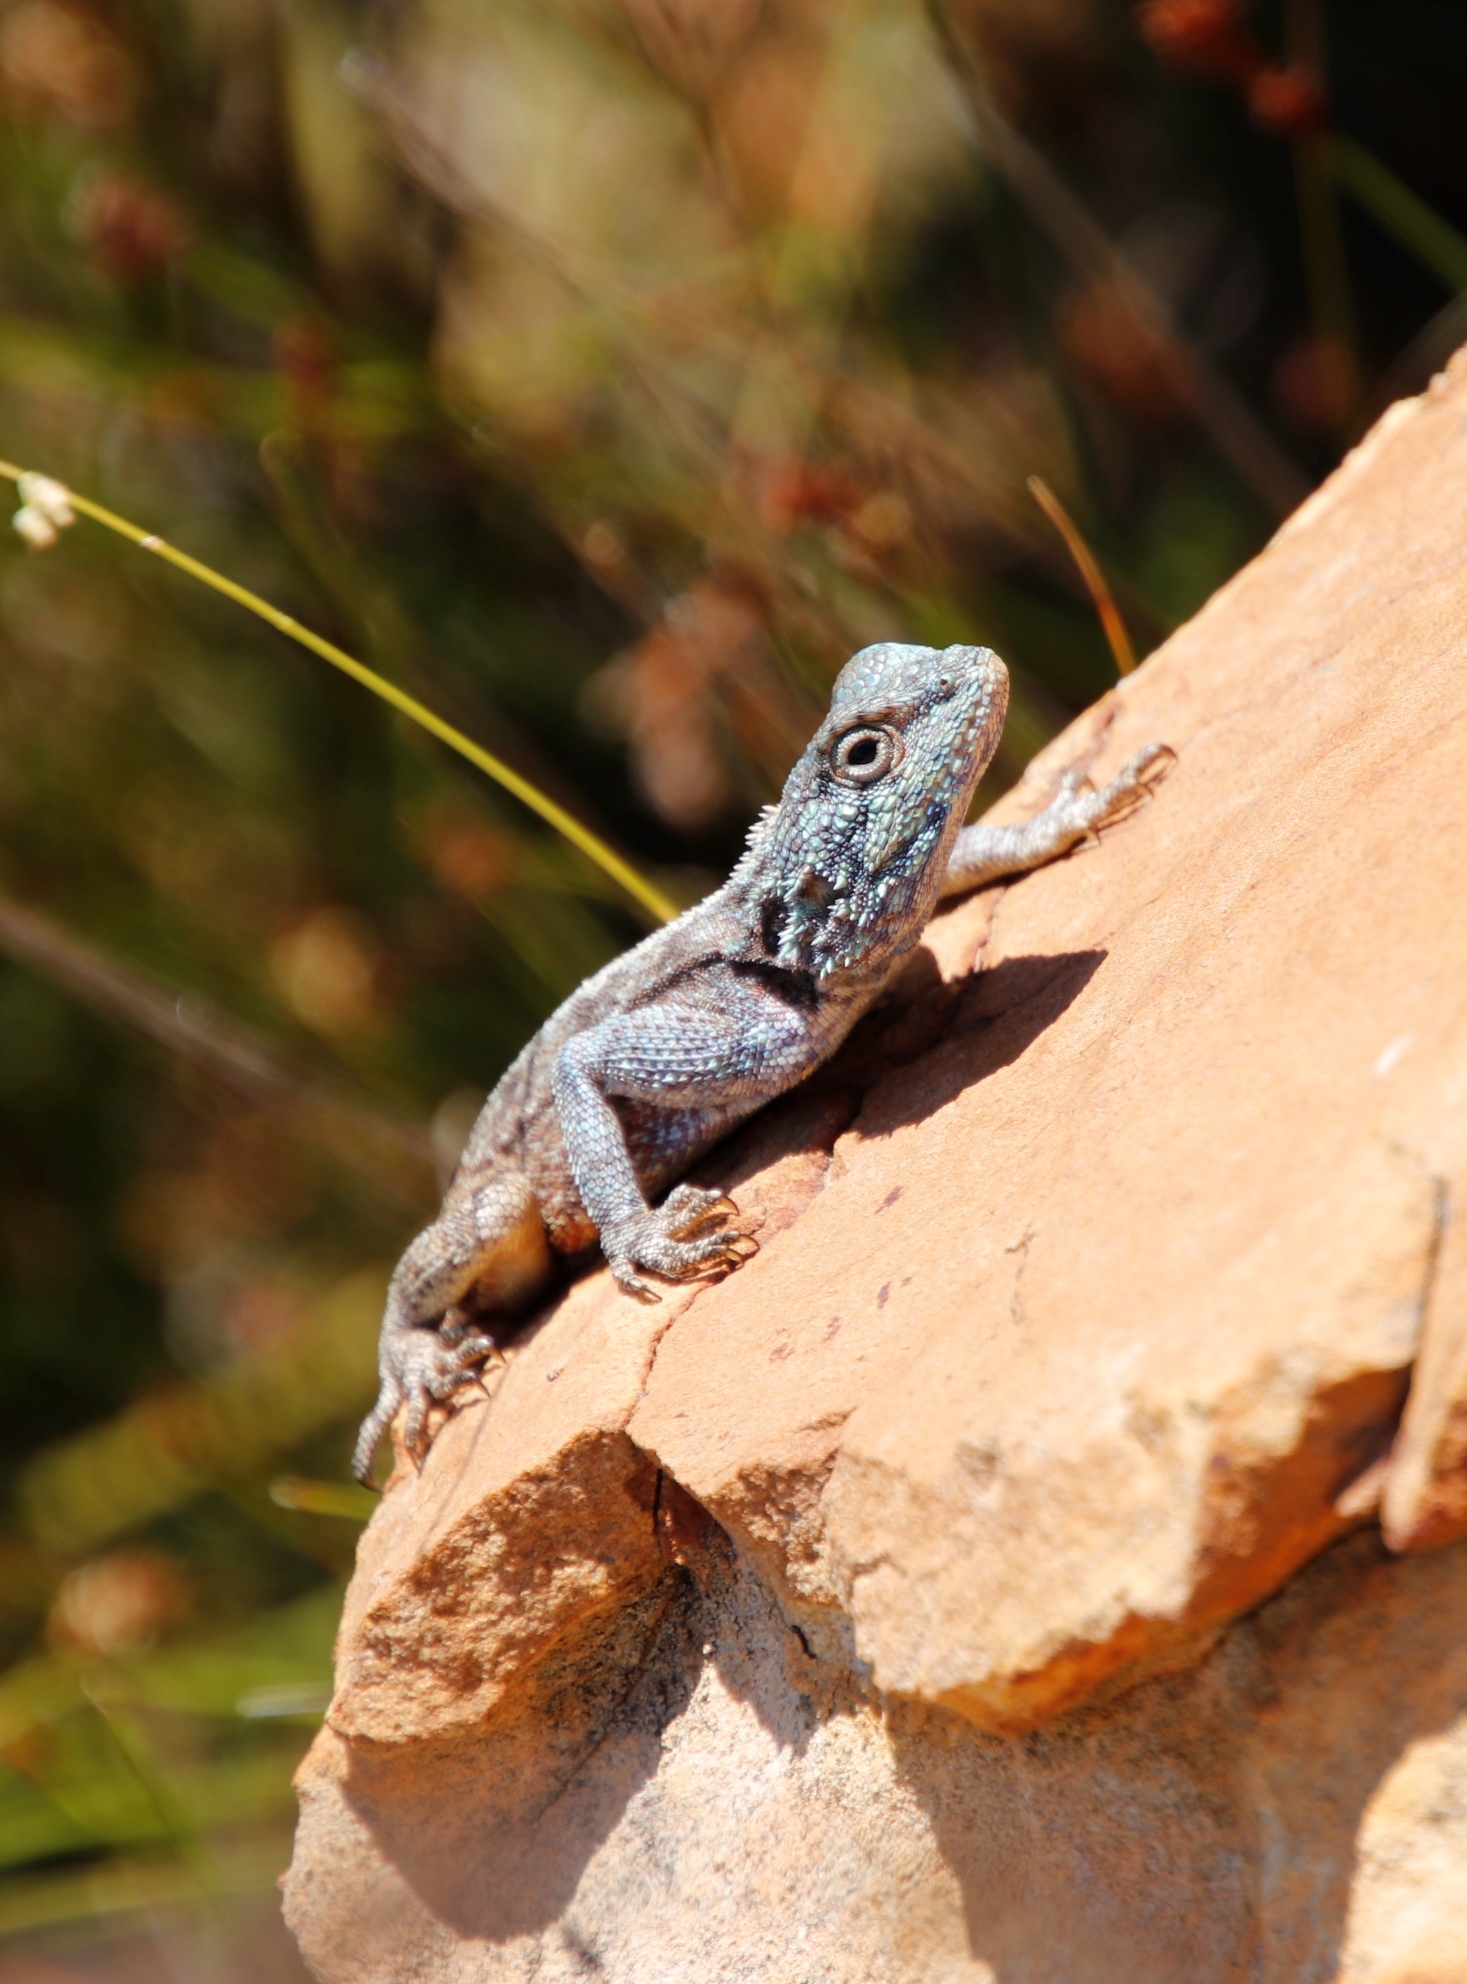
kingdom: Animalia
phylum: Chordata
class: Squamata
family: Agamidae
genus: Agama
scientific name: Agama atra
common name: Southern african rock agama
